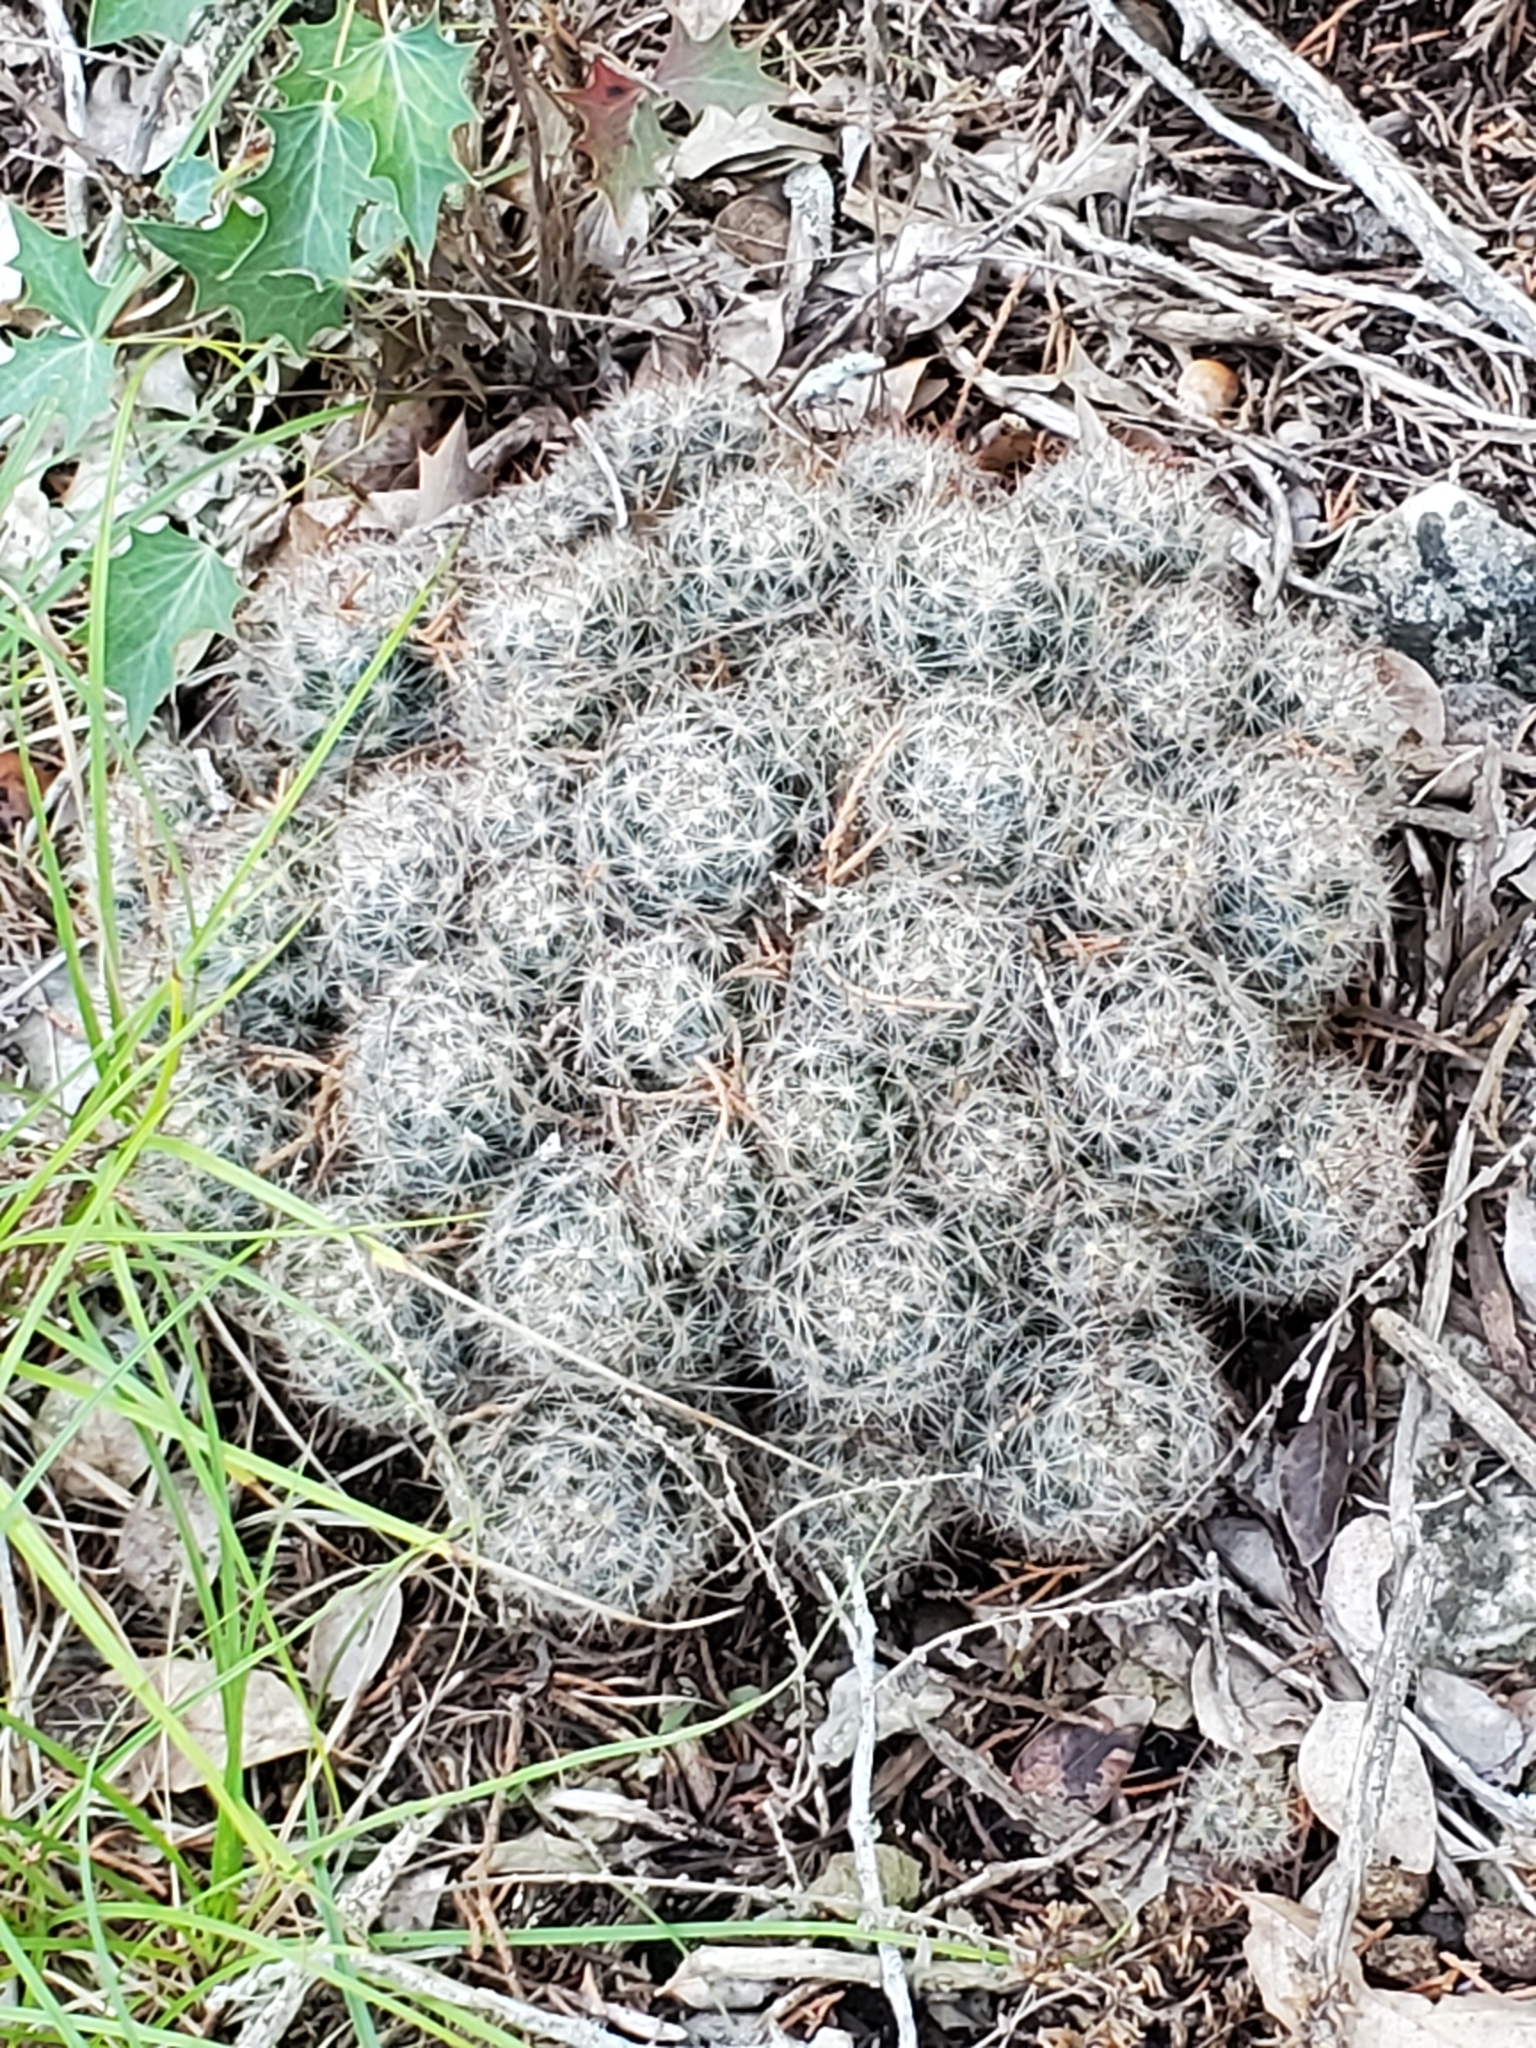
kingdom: Plantae
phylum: Tracheophyta
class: Magnoliopsida
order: Caryophyllales
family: Cactaceae
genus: Mammillaria
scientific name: Mammillaria prolifera
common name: Texas nipple cactus
